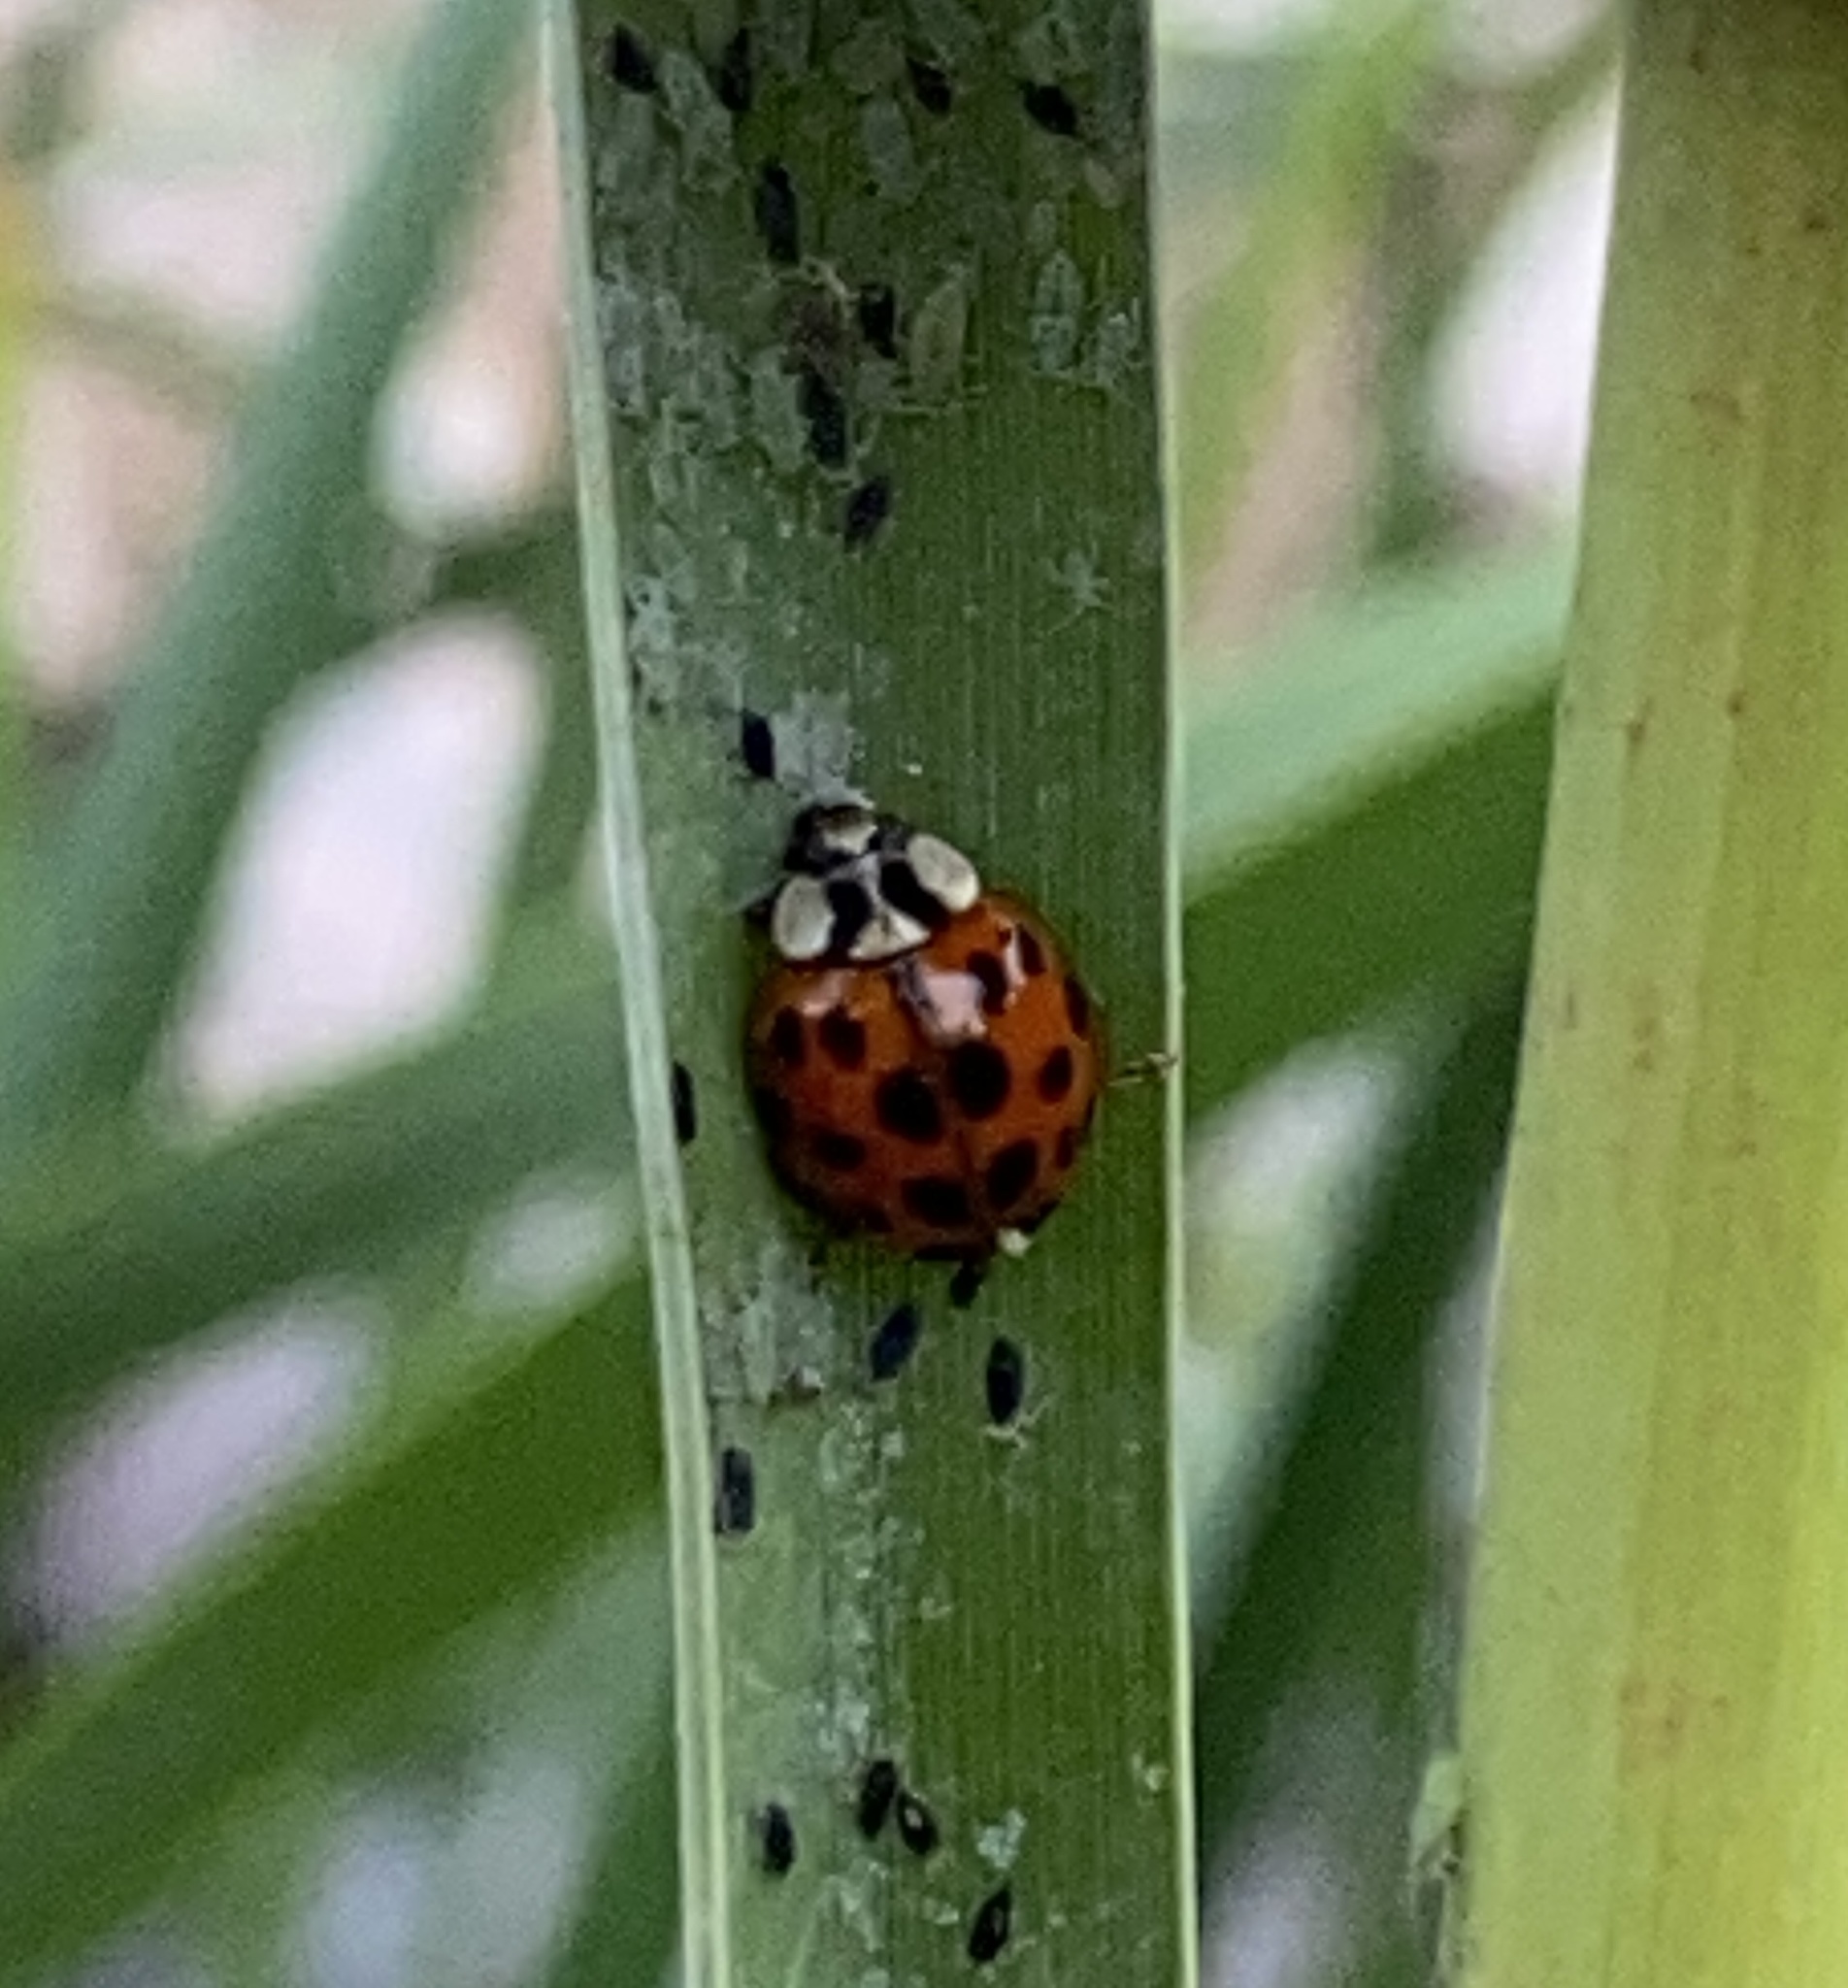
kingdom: Animalia
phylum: Arthropoda
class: Insecta
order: Coleoptera
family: Coccinellidae
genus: Harmonia
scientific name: Harmonia axyridis
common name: Harlequin ladybird
